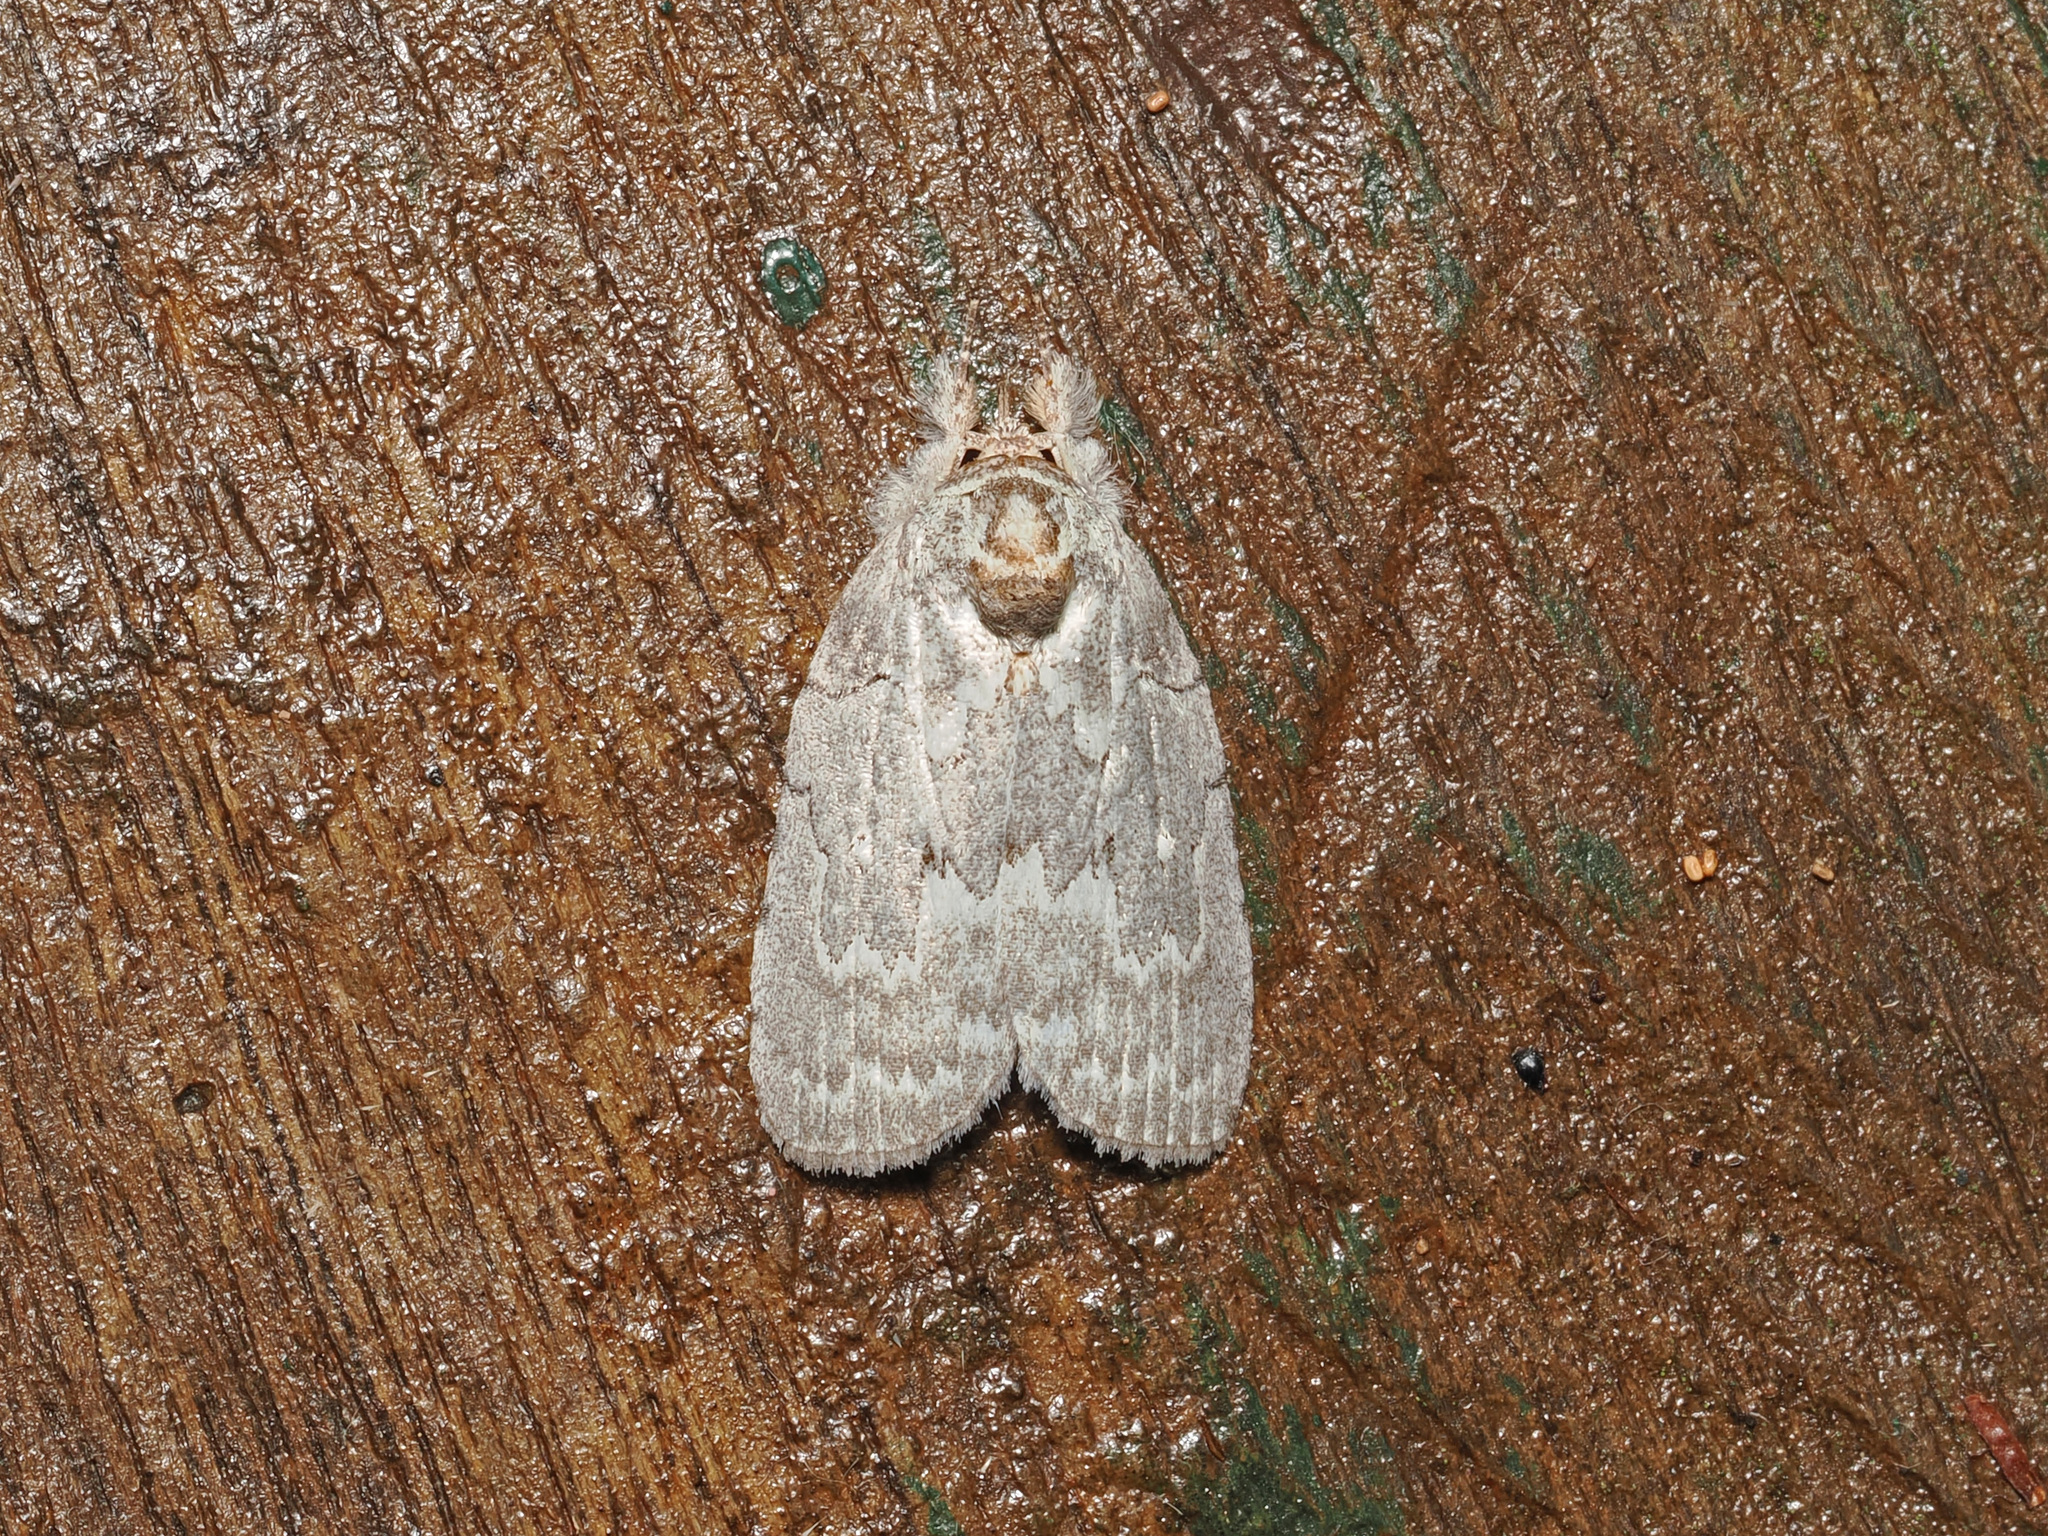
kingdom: Animalia
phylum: Arthropoda
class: Insecta
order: Lepidoptera
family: Nolidae
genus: Ptisciana
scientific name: Ptisciana seminivea
